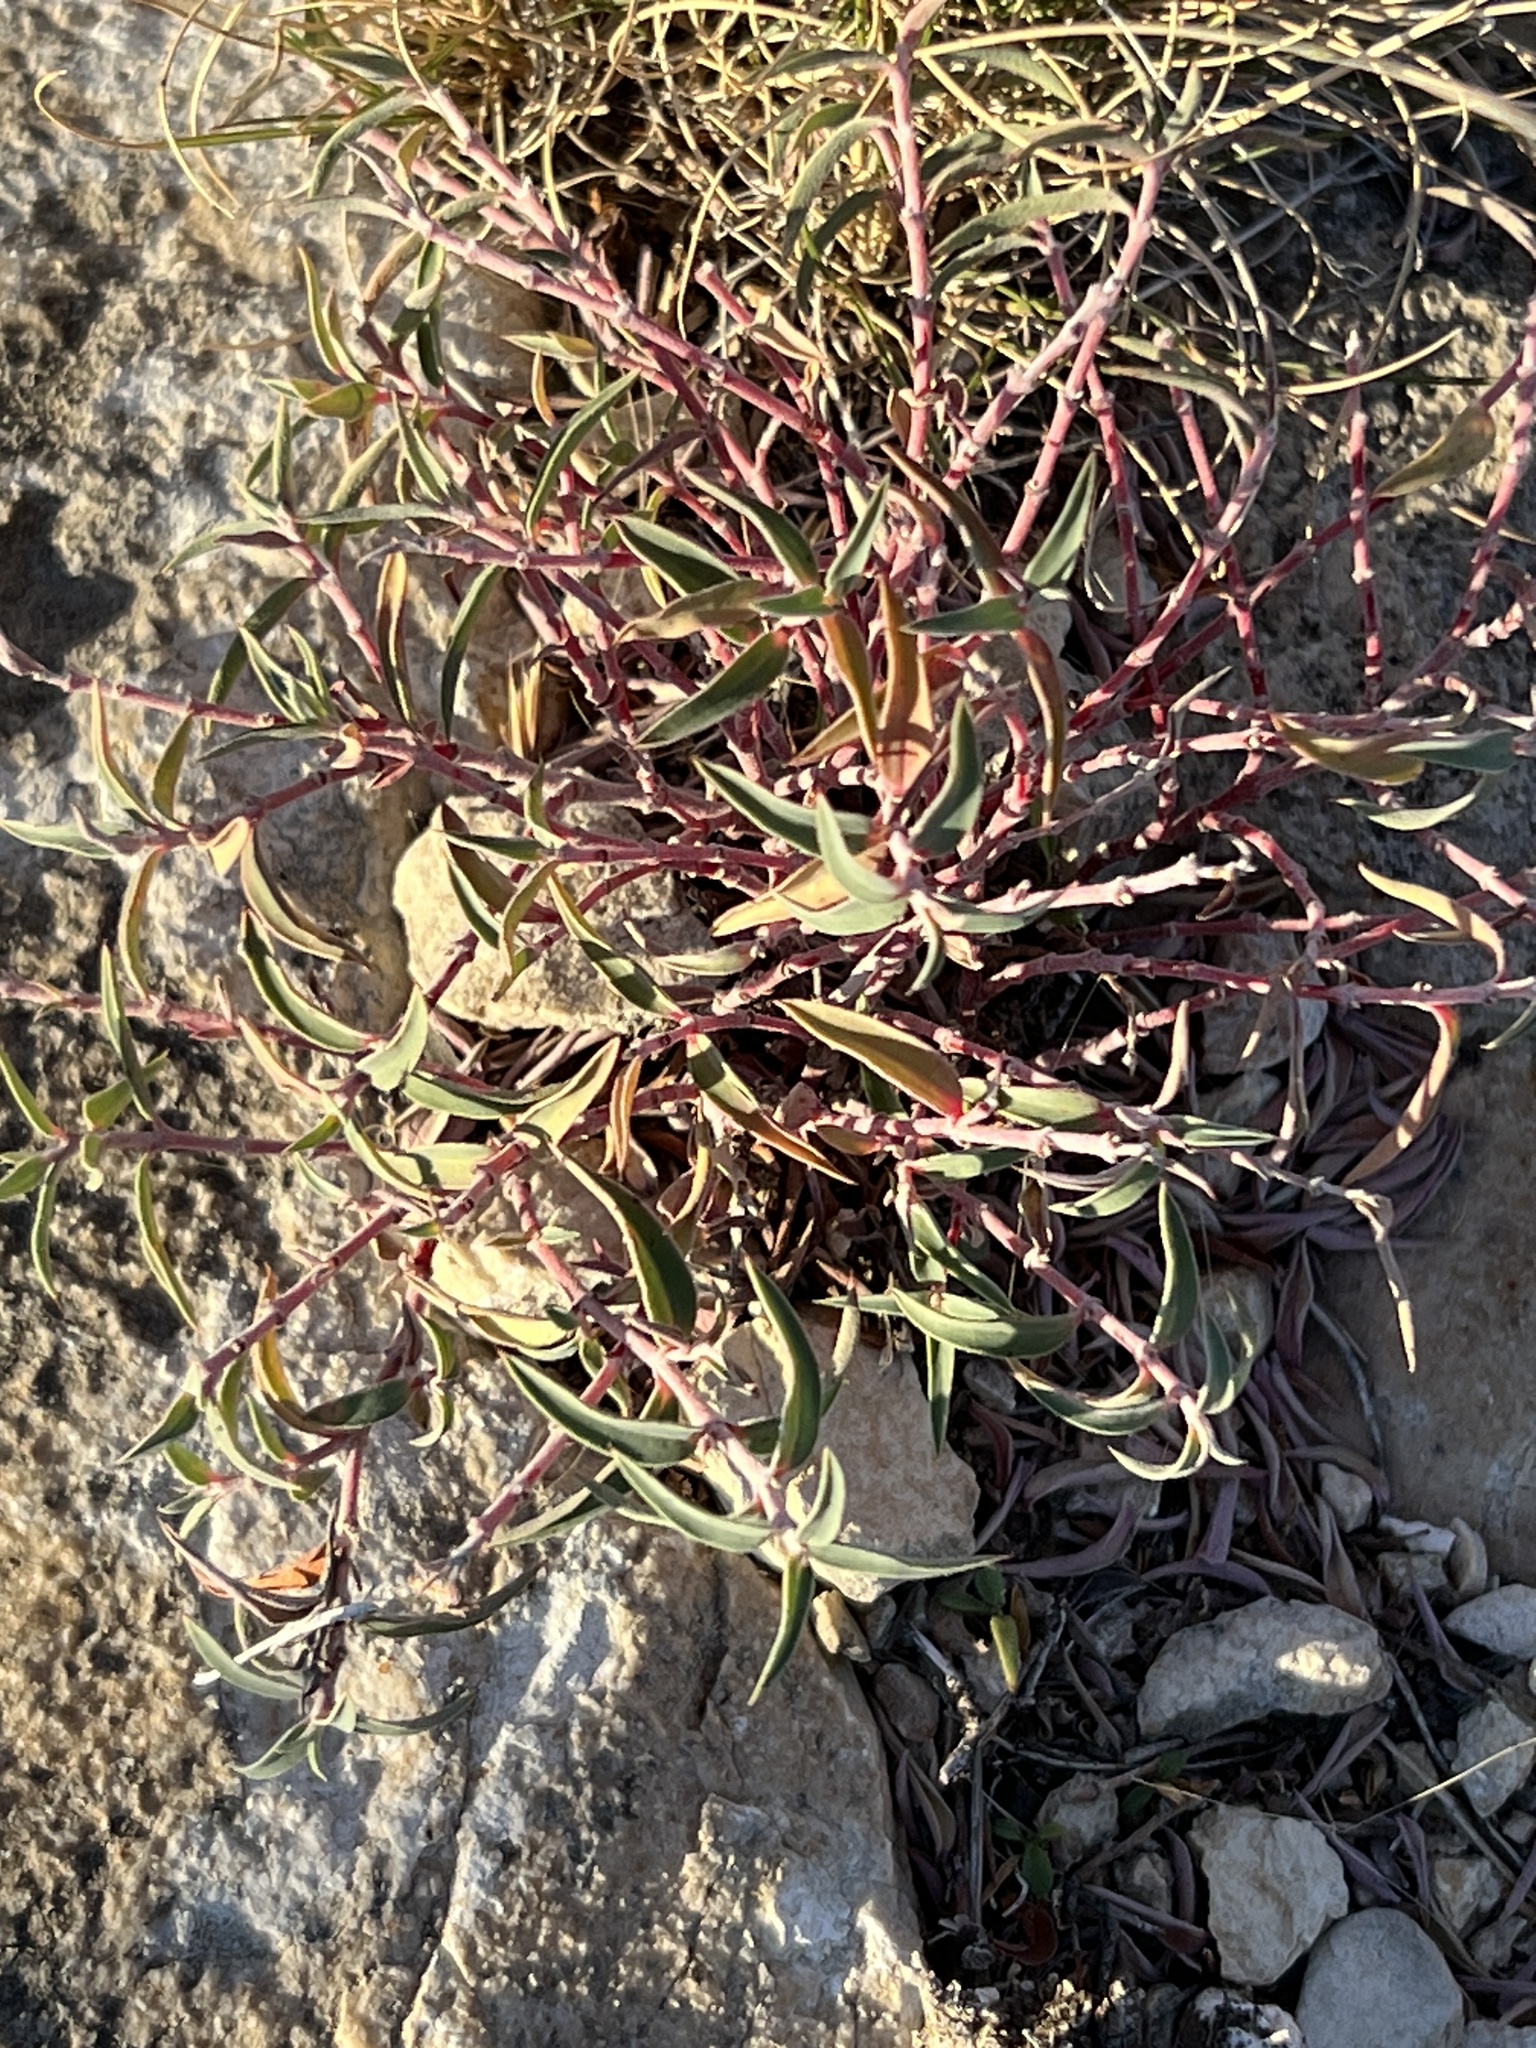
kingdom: Plantae
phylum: Tracheophyta
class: Magnoliopsida
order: Malpighiales
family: Euphorbiaceae
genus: Euphorbia
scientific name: Euphorbia acuta
